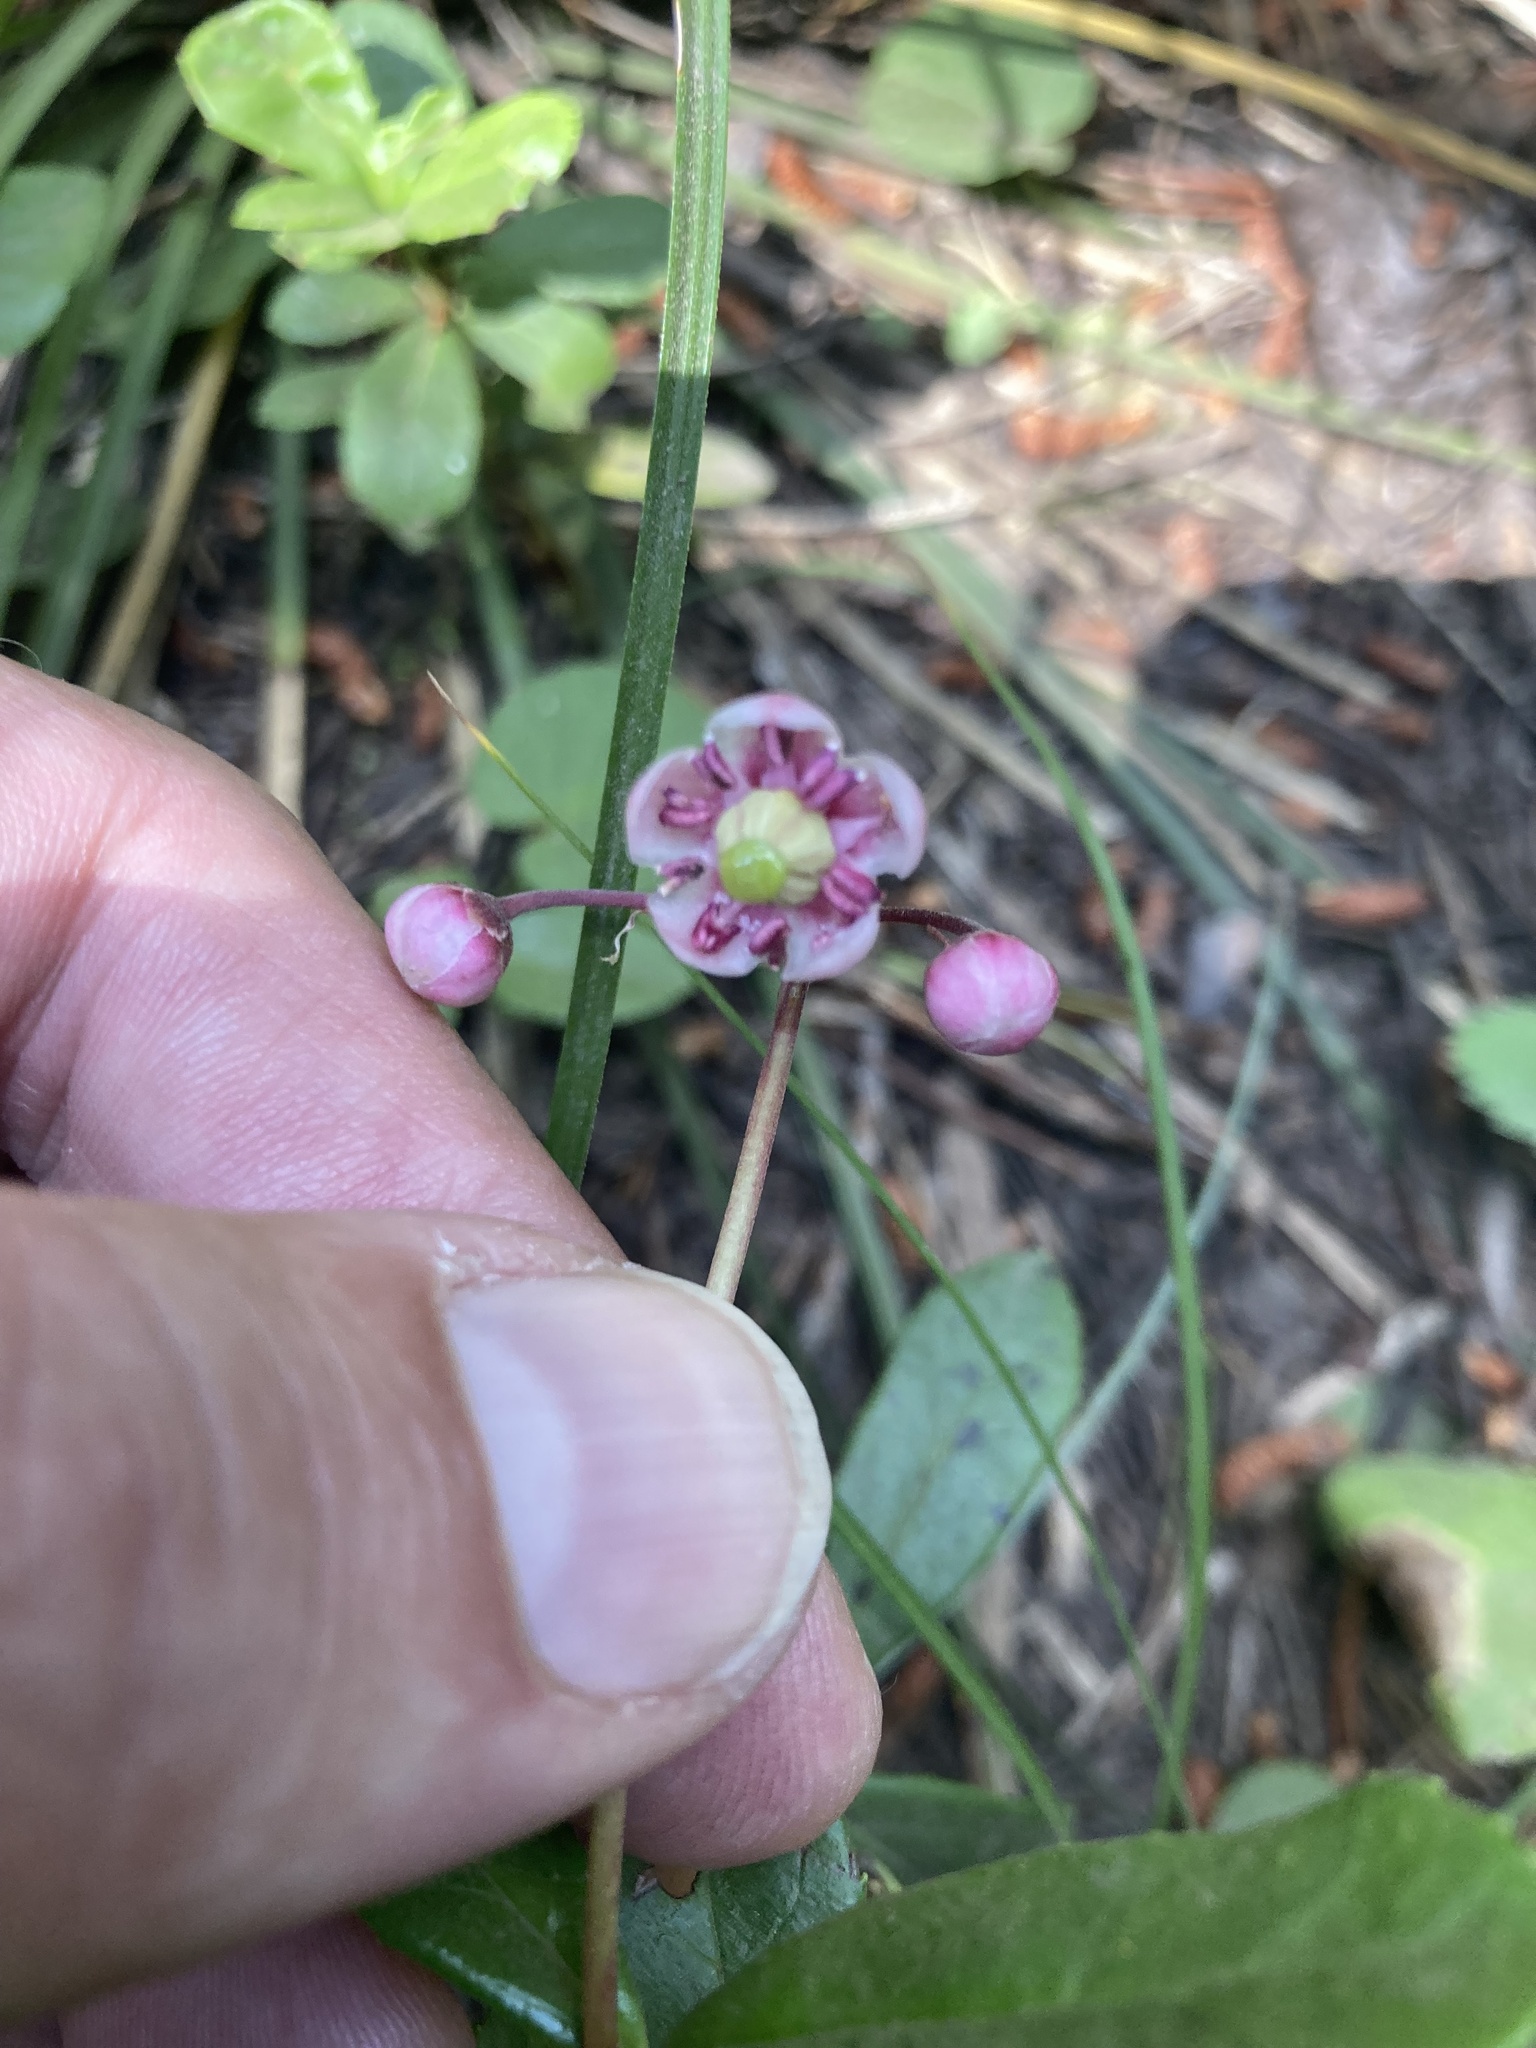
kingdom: Plantae
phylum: Tracheophyta
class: Magnoliopsida
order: Ericales
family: Ericaceae
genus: Chimaphila
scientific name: Chimaphila umbellata
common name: Pipsissewa
